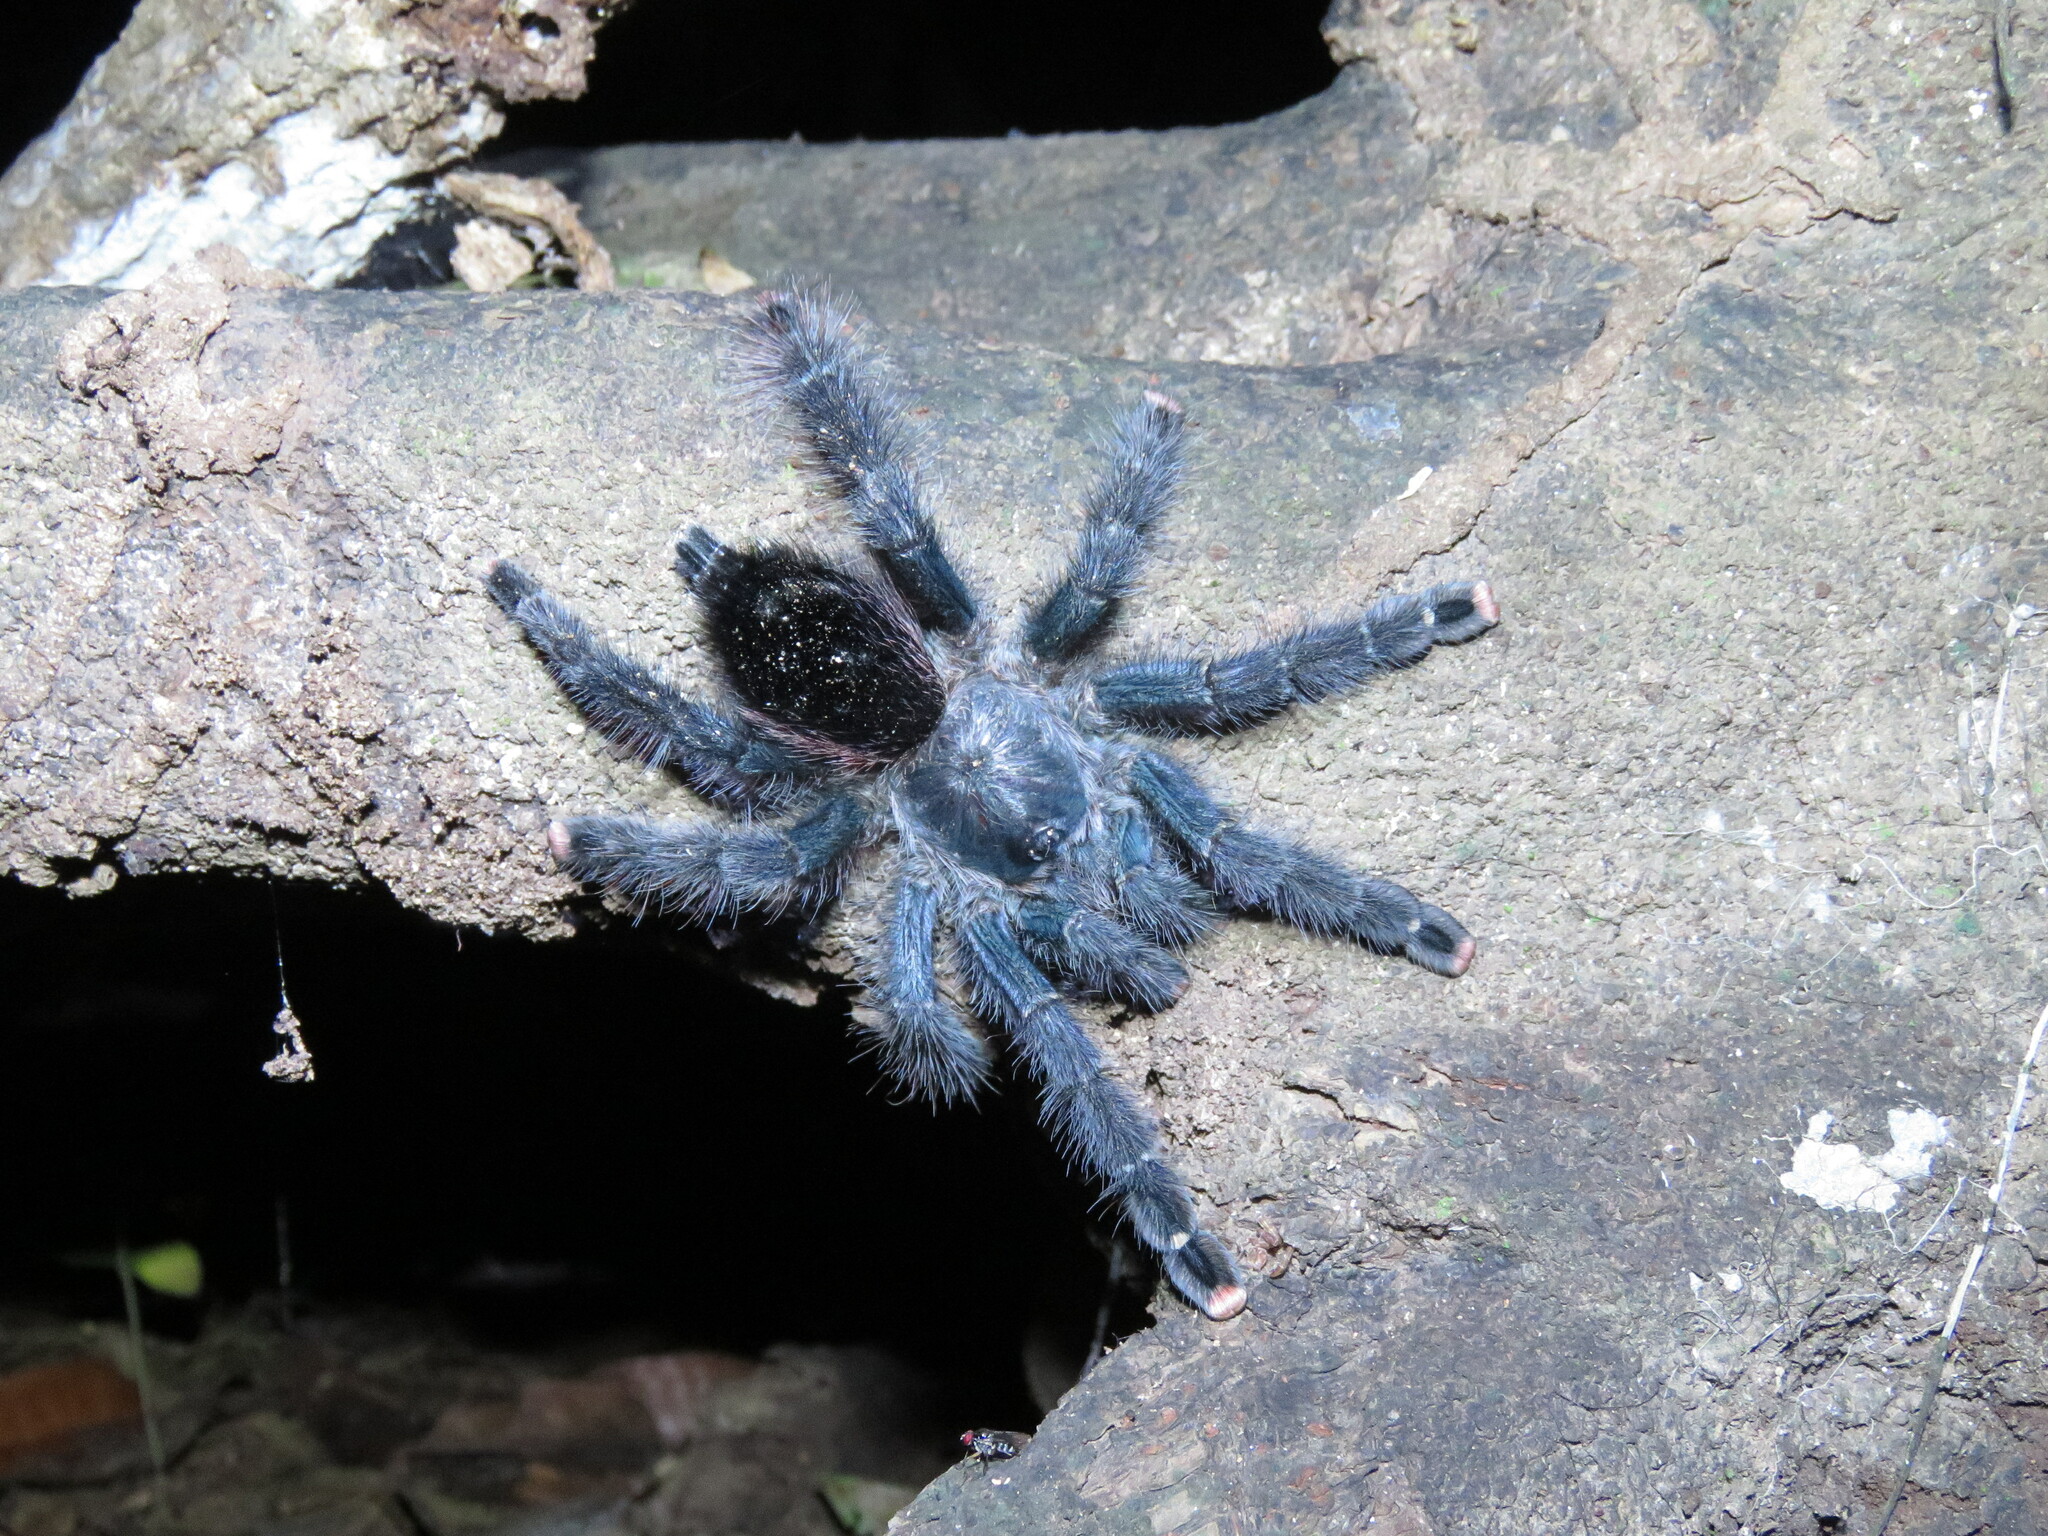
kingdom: Animalia
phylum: Arthropoda
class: Arachnida
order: Araneae
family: Theraphosidae
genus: Avicularia
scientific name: Avicularia avicularia
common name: Tarantula spiders
